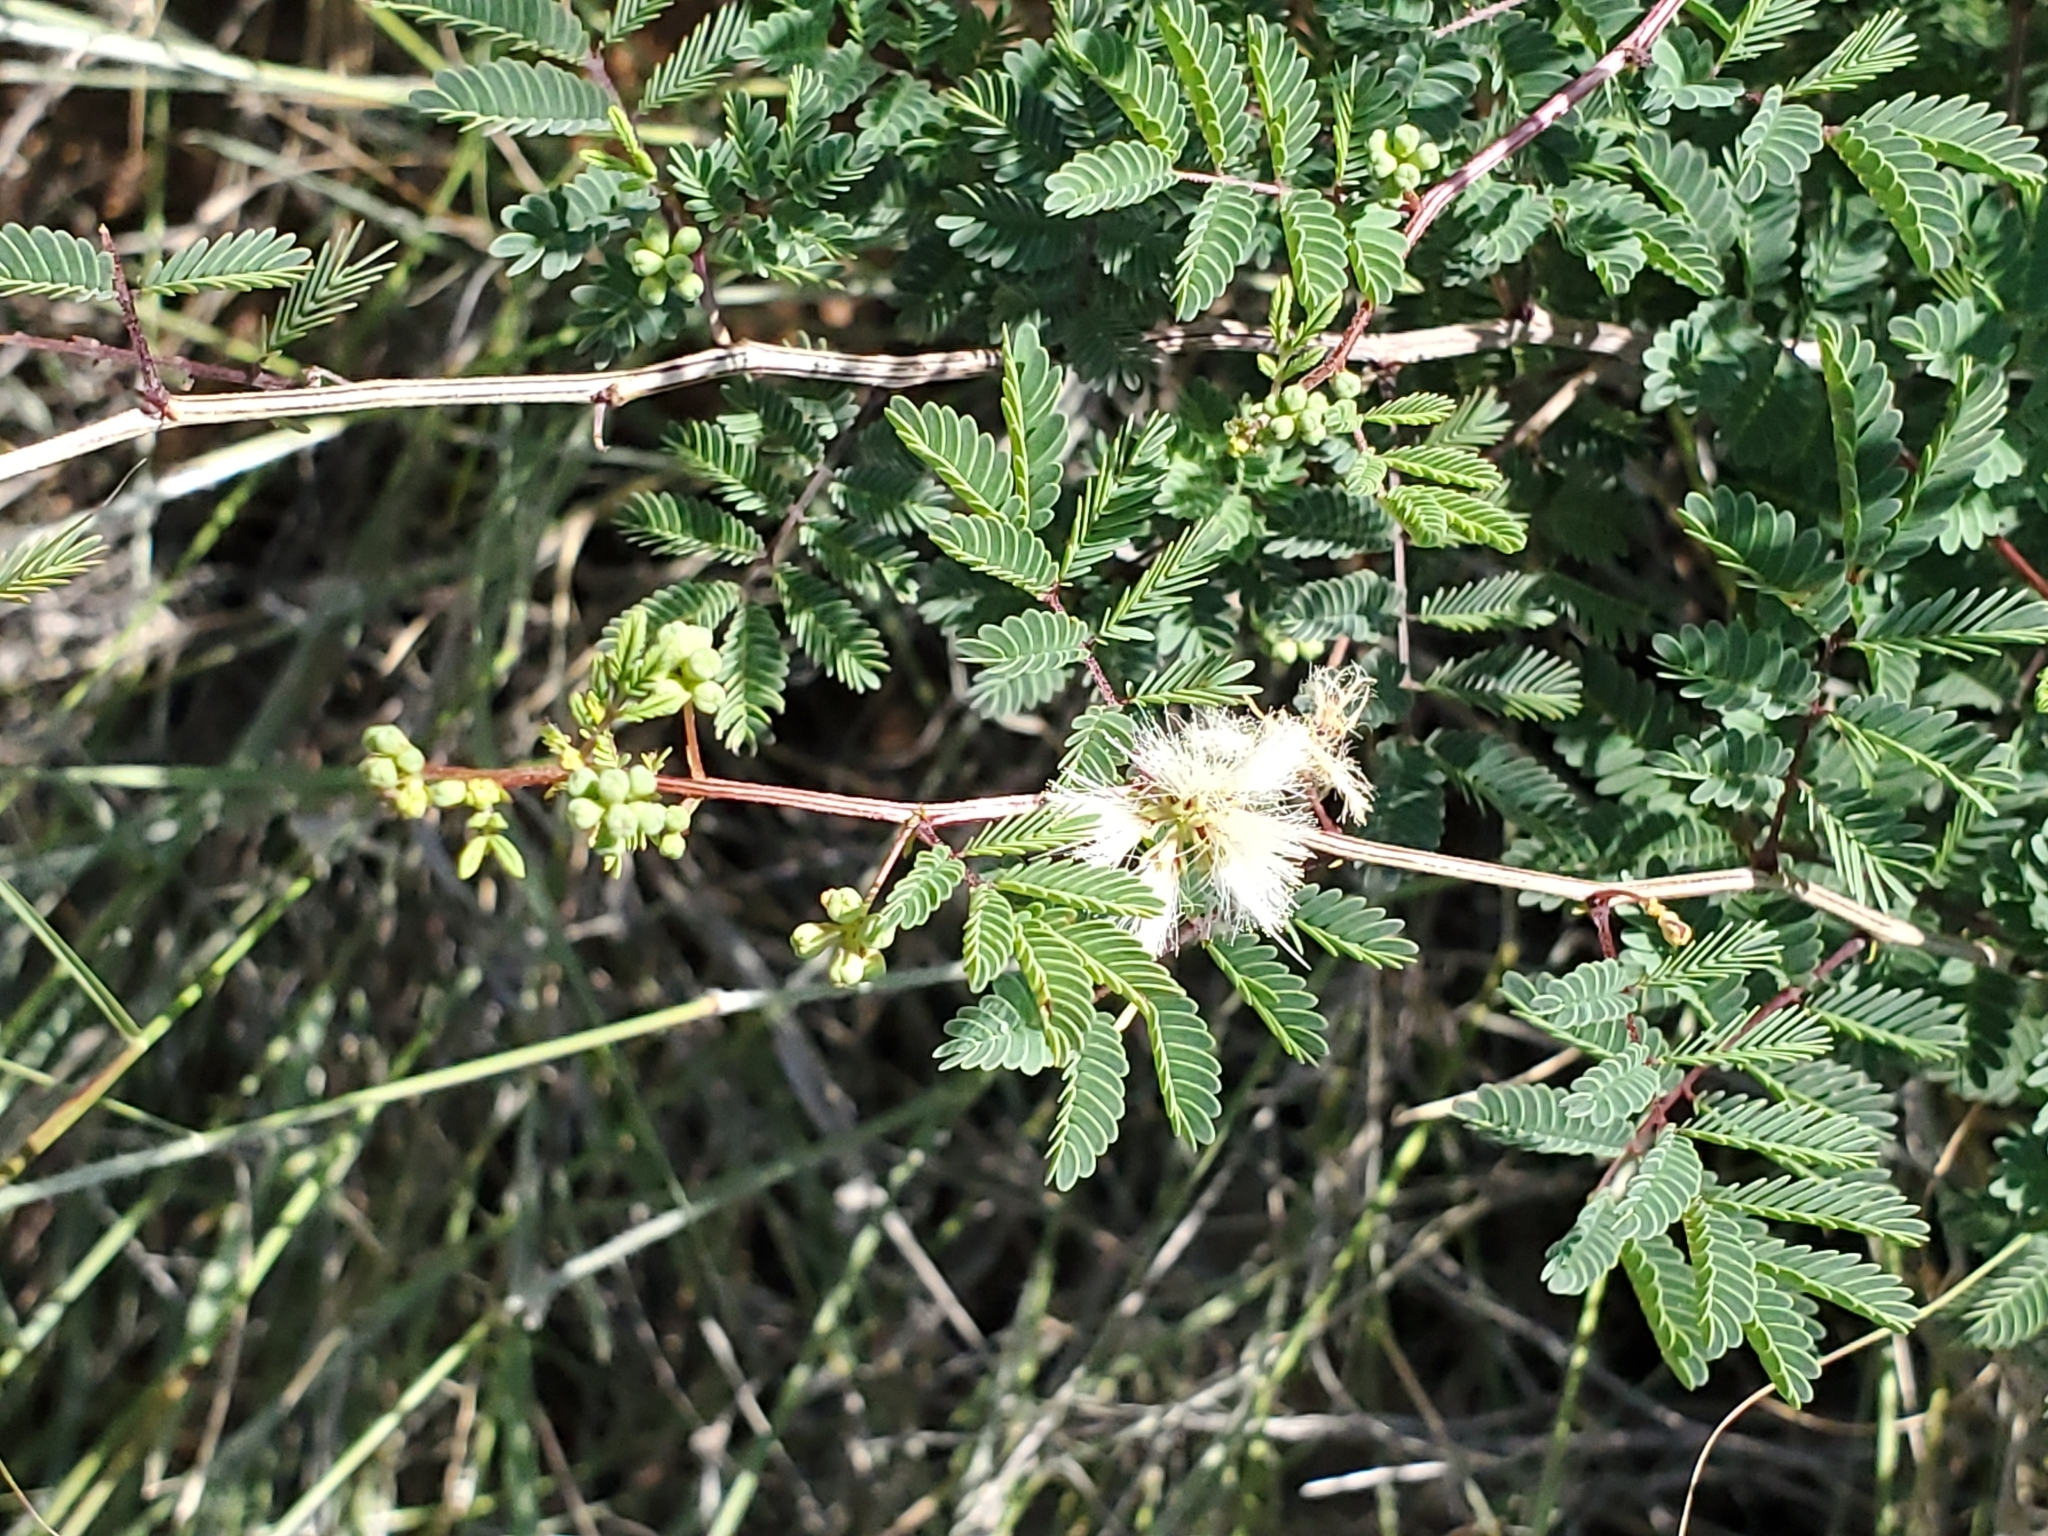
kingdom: Plantae
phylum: Tracheophyta
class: Magnoliopsida
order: Fabales
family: Fabaceae
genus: Acaciella
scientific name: Acaciella angustissima
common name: Prairie acacia
